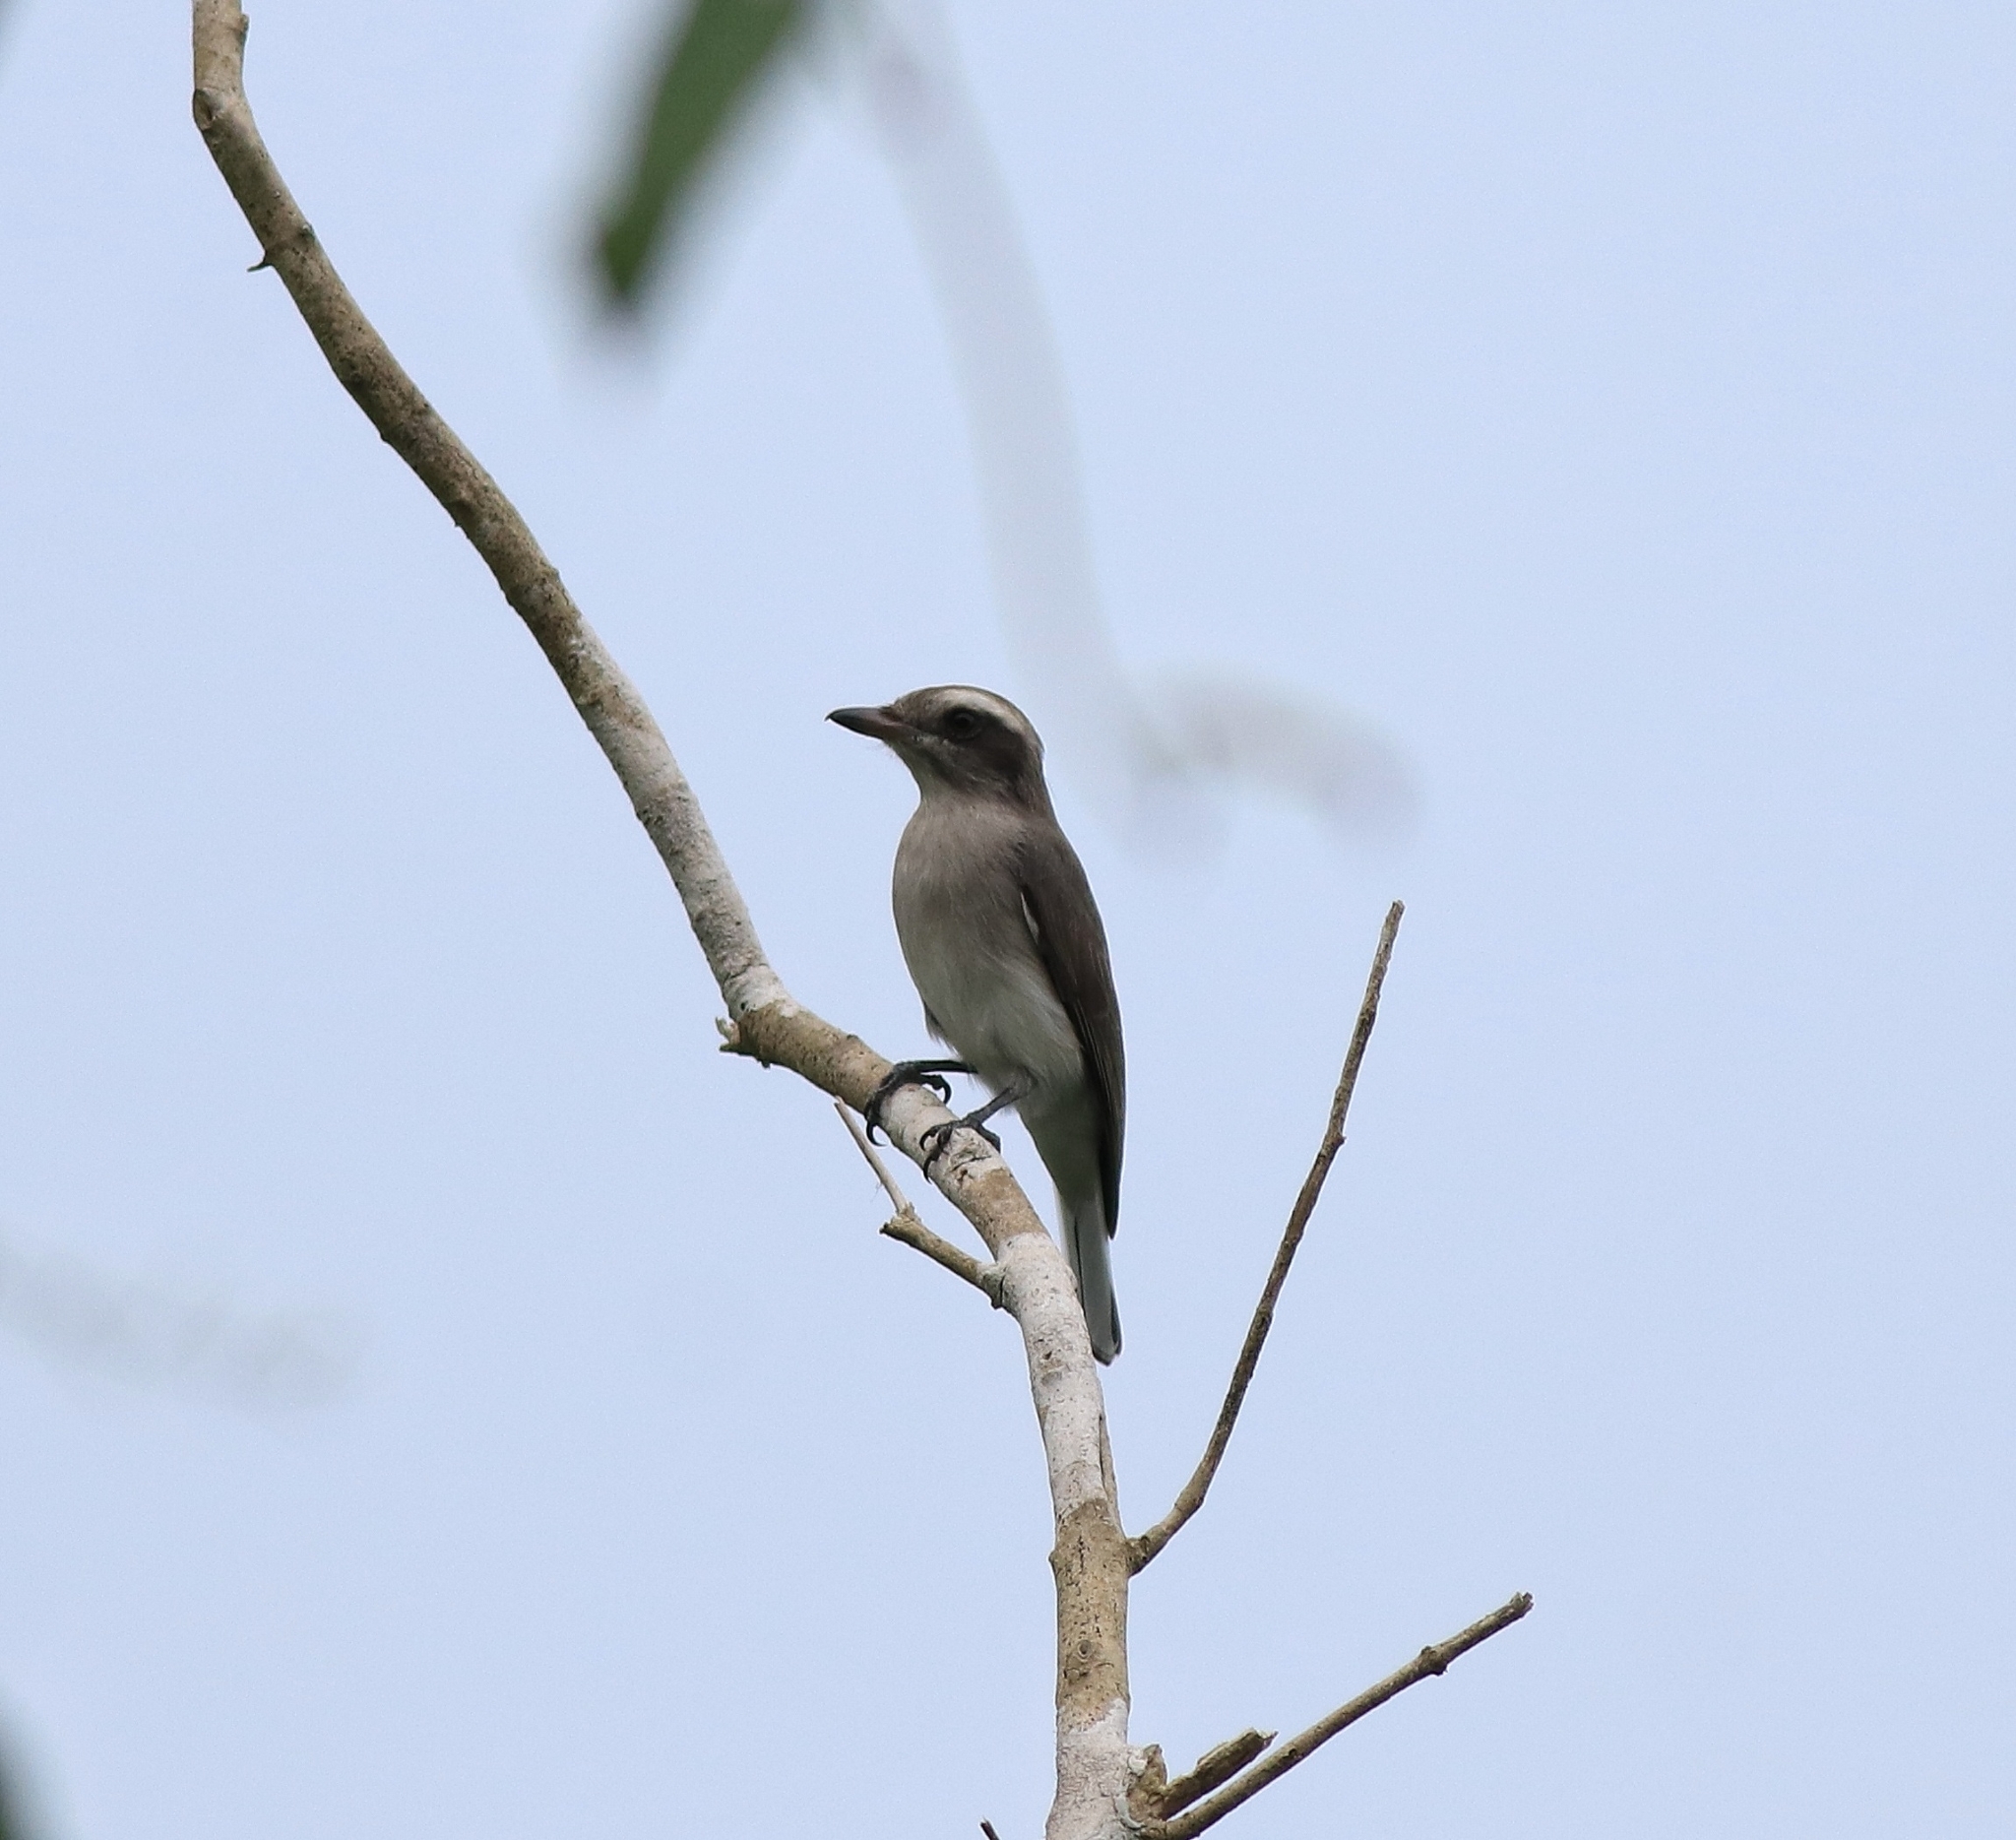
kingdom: Animalia
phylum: Chordata
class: Aves
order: Passeriformes
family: Tephrodornithidae
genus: Tephrodornis
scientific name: Tephrodornis pondicerianus
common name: Common woodshrike
